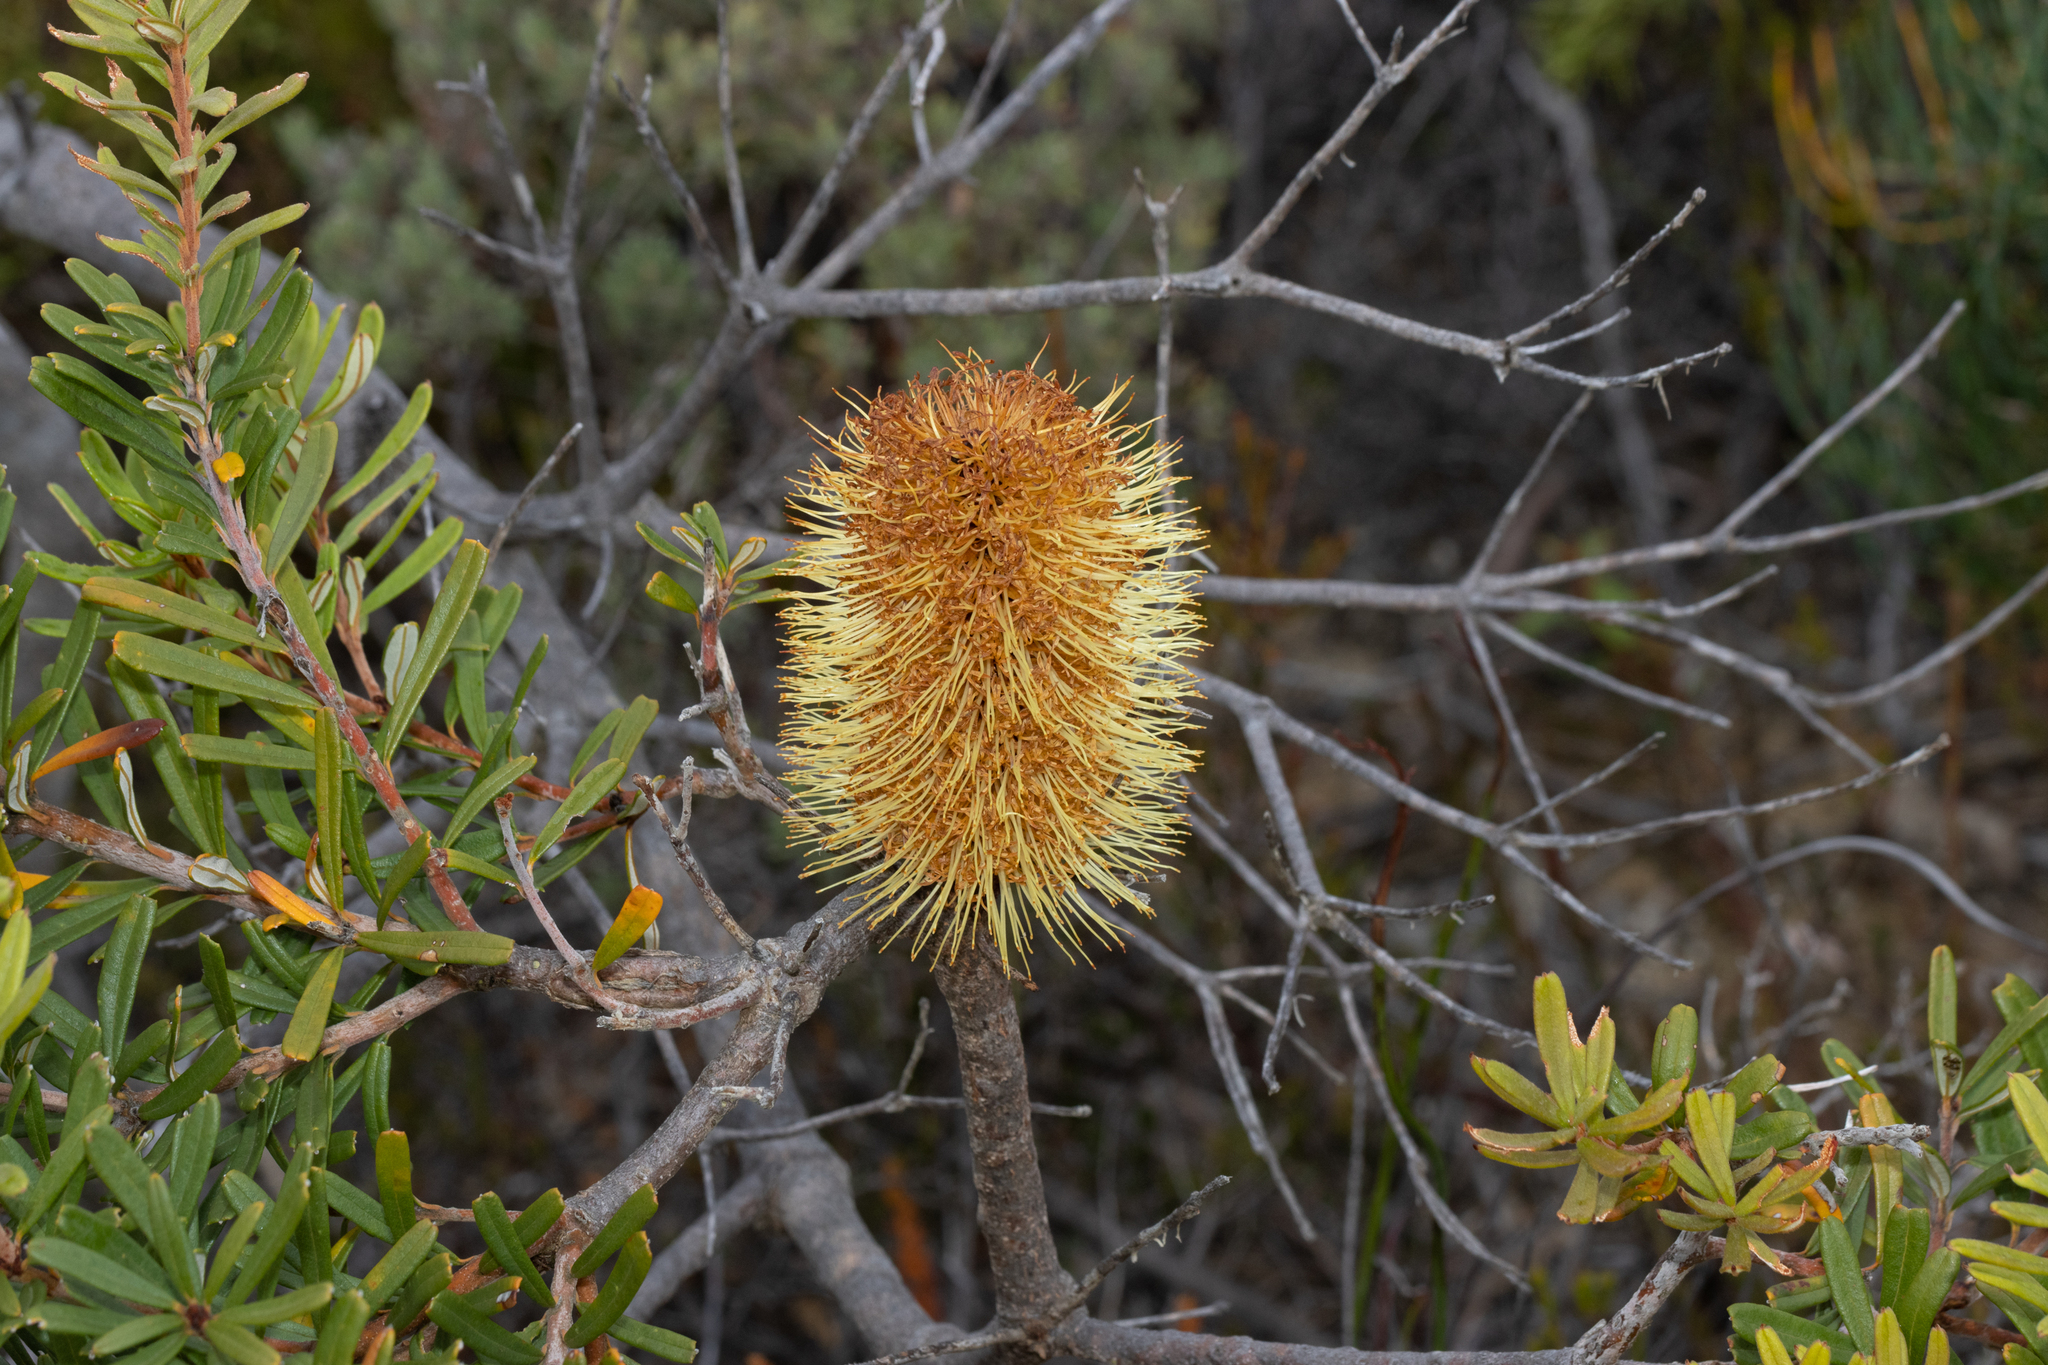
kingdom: Plantae
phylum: Tracheophyta
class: Magnoliopsida
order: Proteales
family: Proteaceae
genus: Banksia
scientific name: Banksia marginata
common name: Silver banksia
